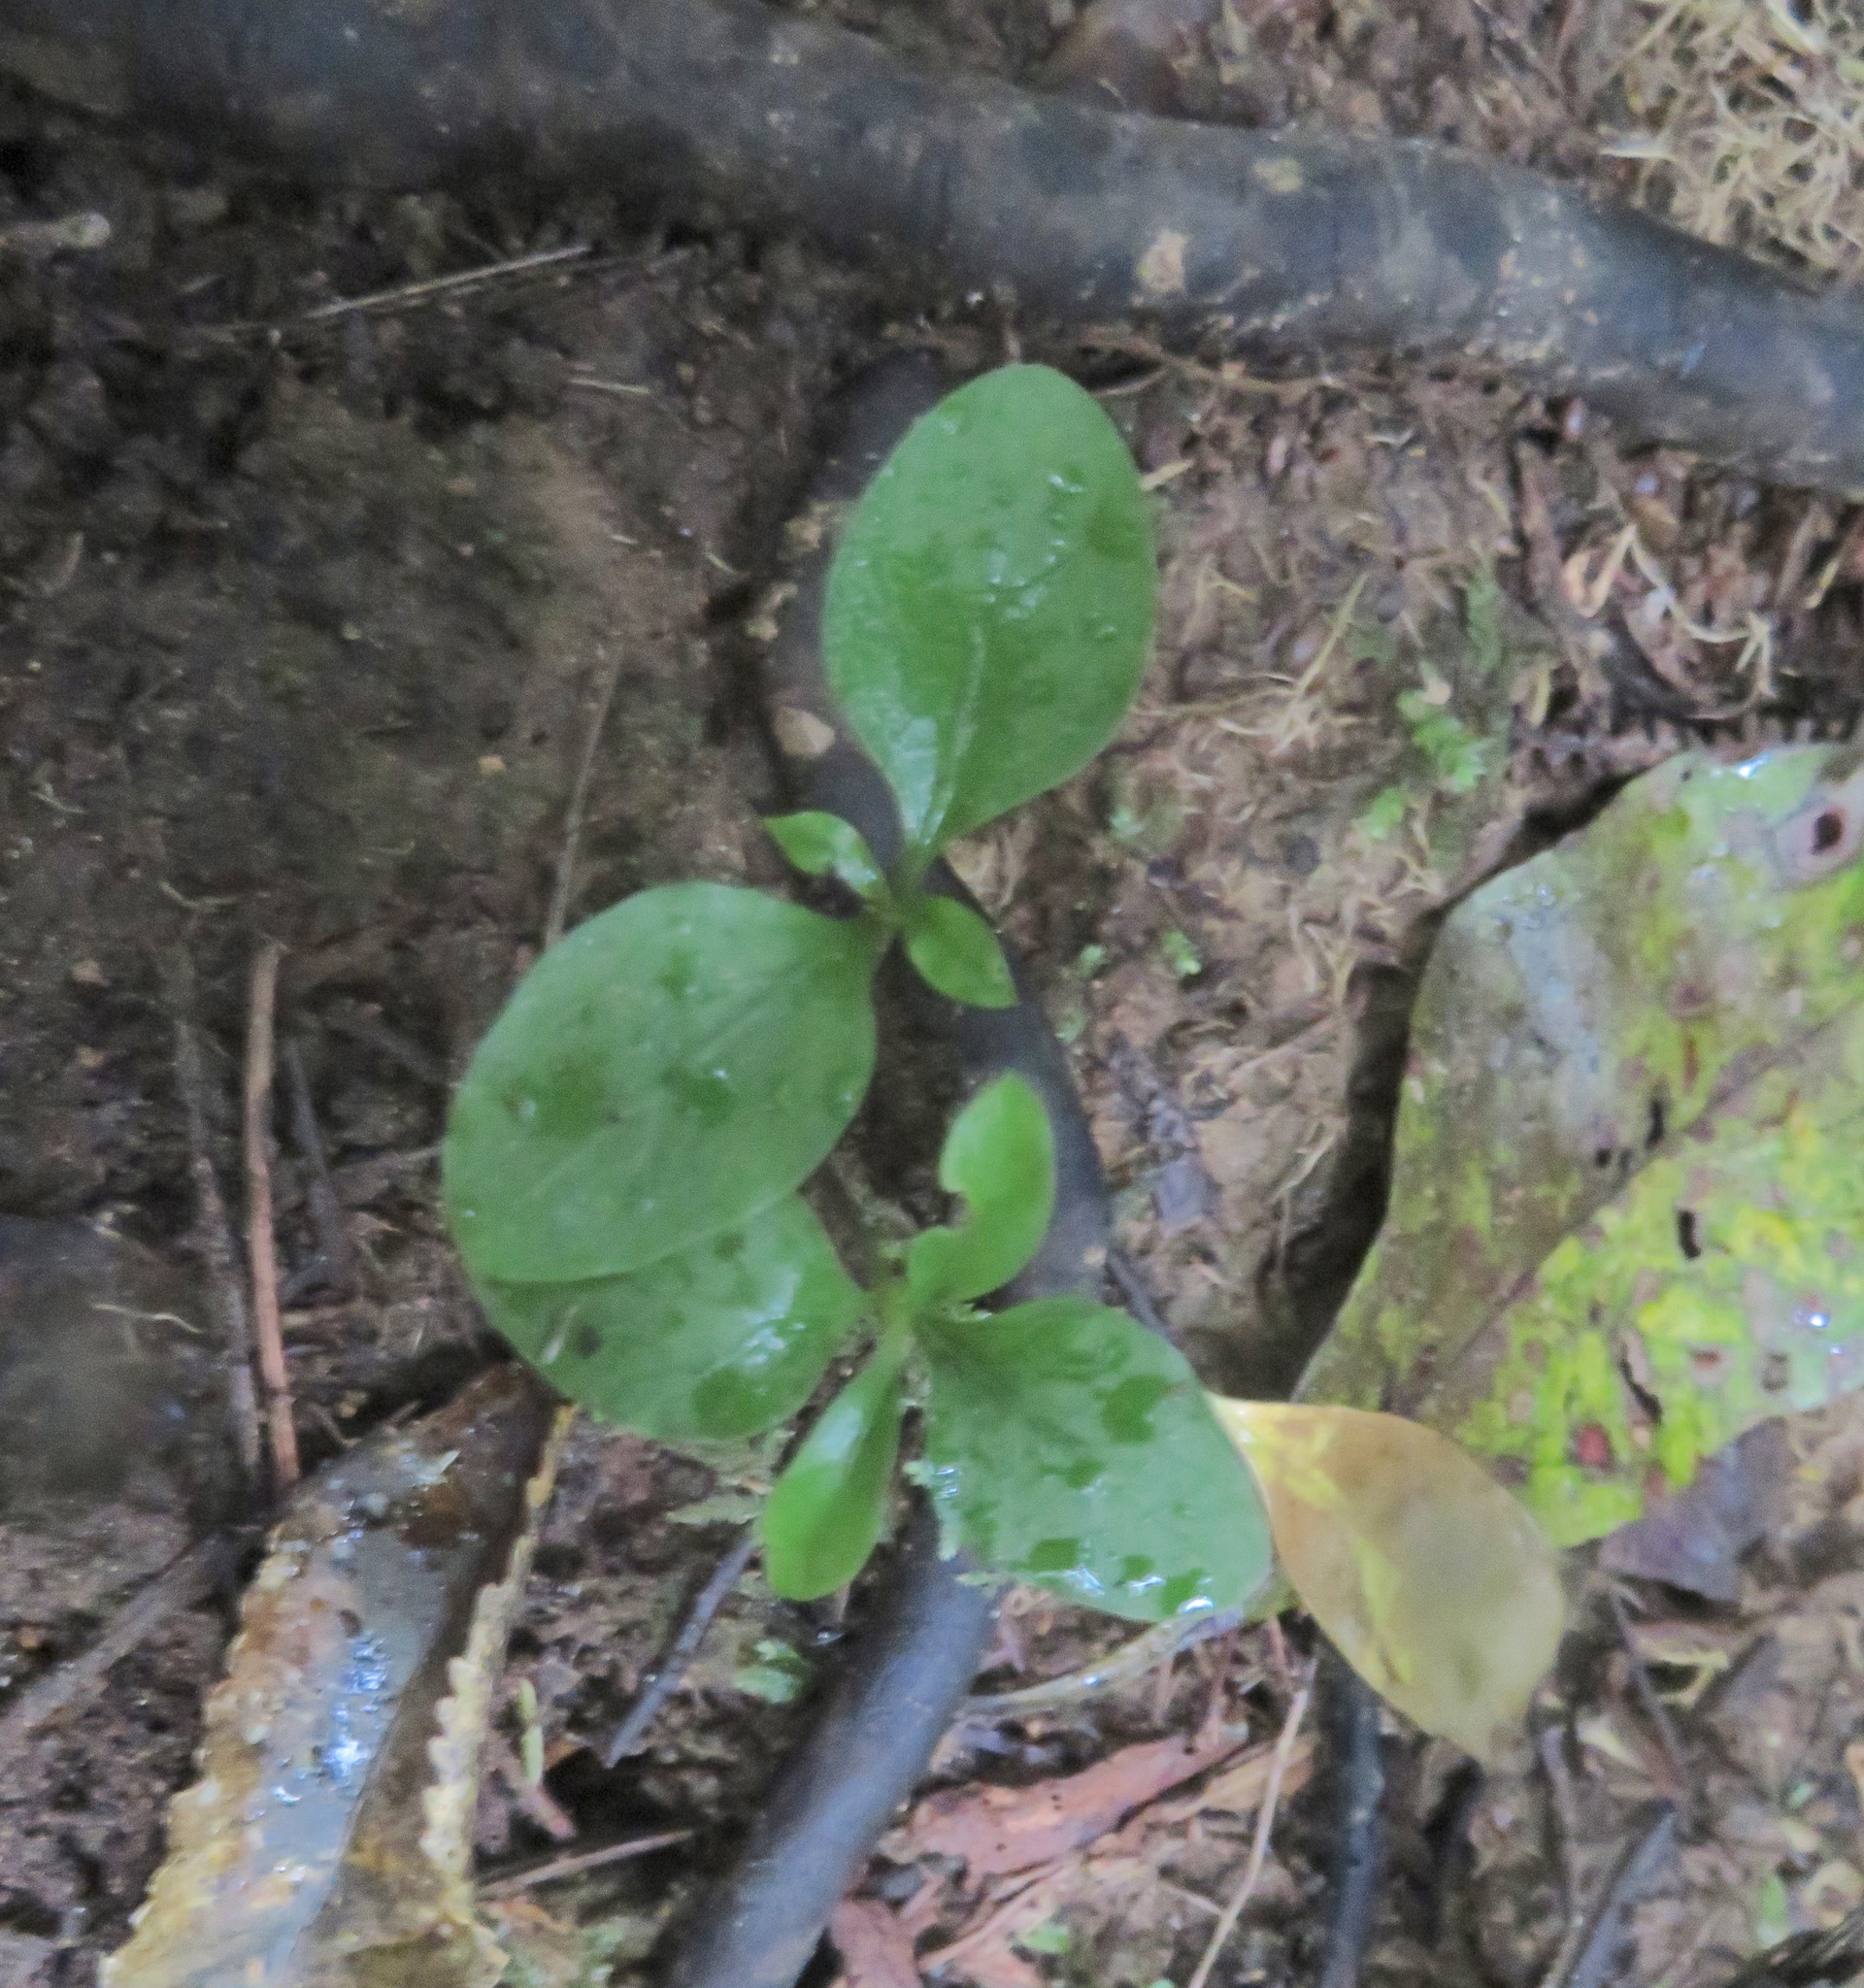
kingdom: Plantae
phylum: Tracheophyta
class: Magnoliopsida
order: Gentianales
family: Rubiaceae
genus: Coprosma
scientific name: Coprosma autumnalis
